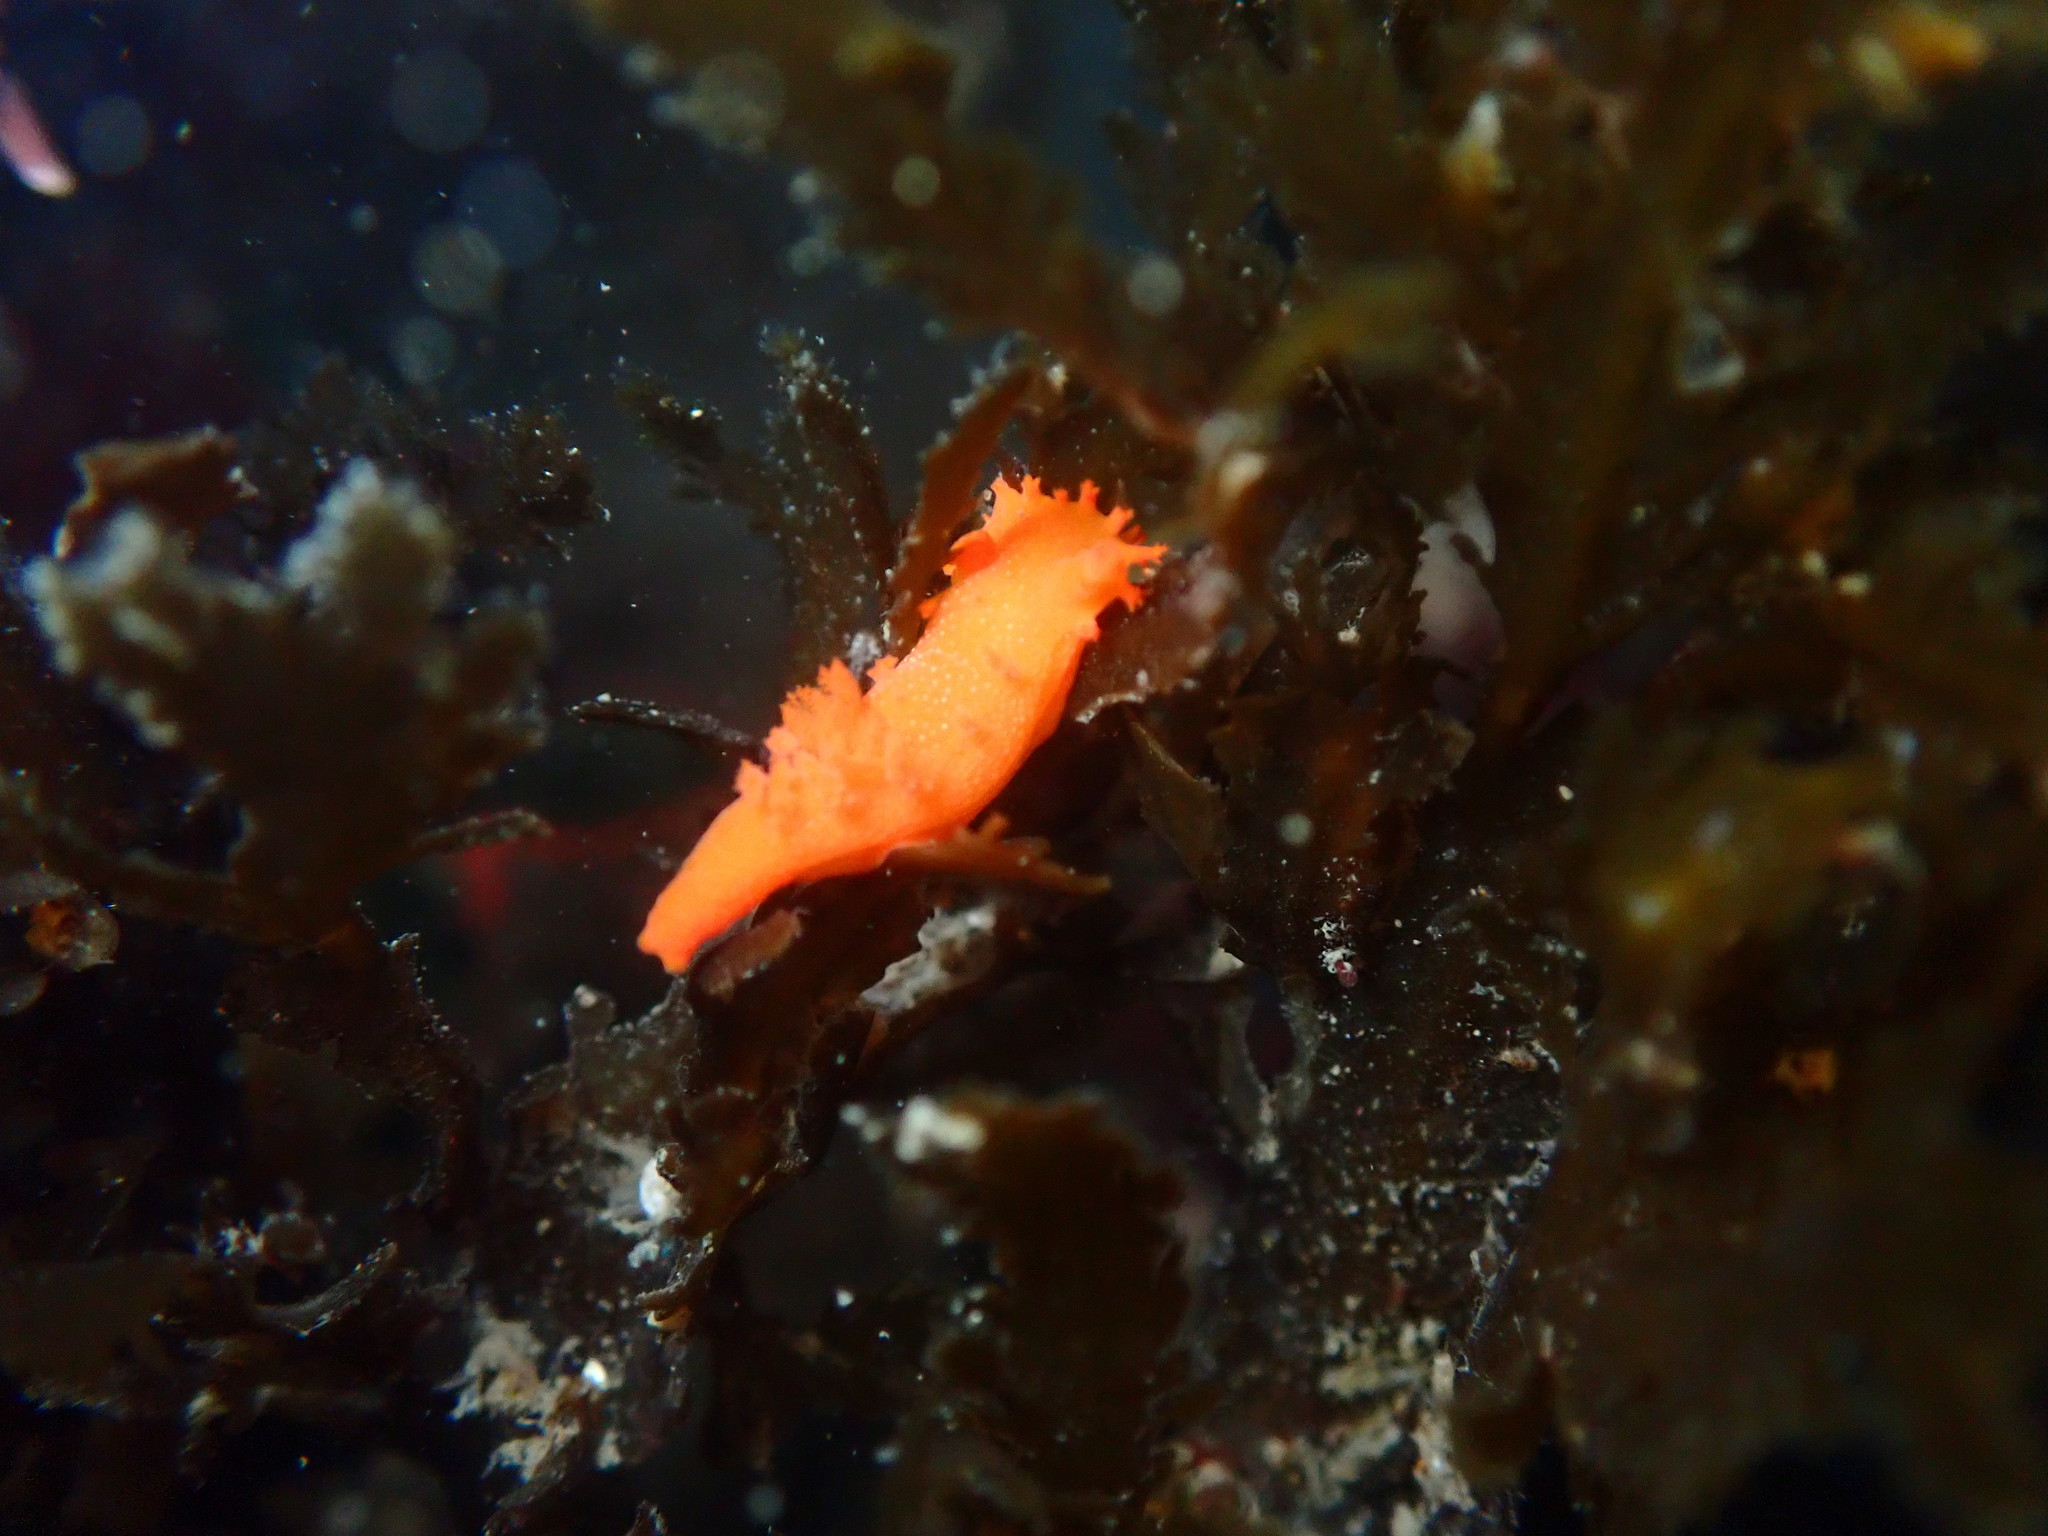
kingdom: Animalia
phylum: Mollusca
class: Gastropoda
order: Nudibranchia
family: Polyceridae
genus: Triopha
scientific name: Triopha maculata
